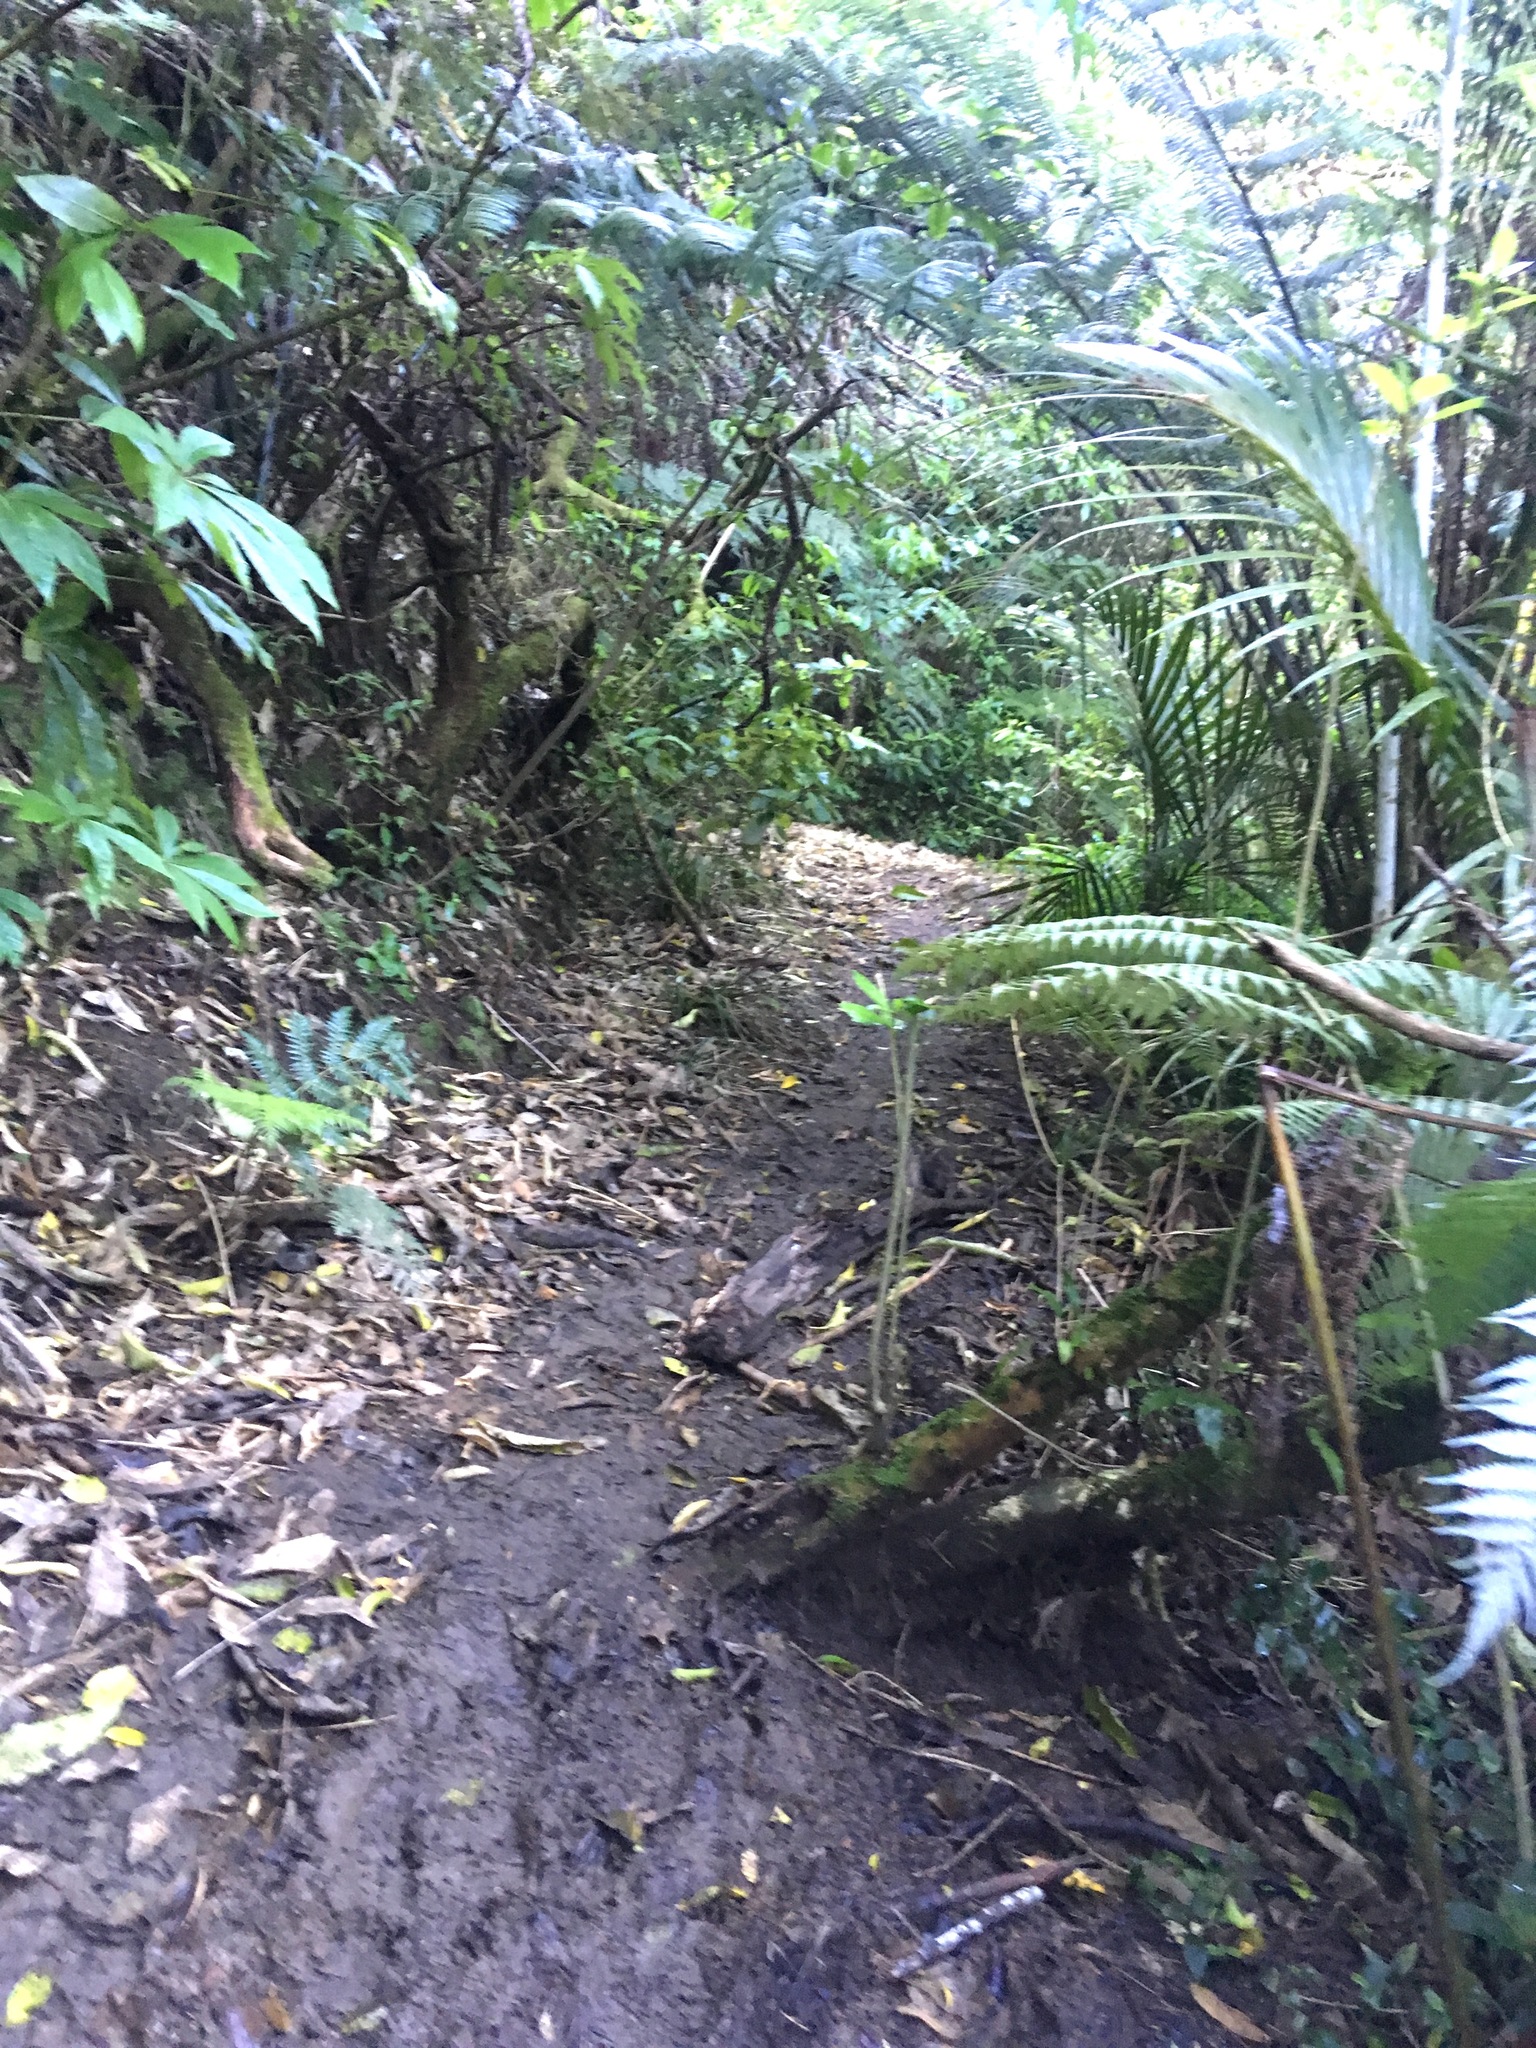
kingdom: Plantae
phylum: Tracheophyta
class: Polypodiopsida
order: Cyatheales
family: Cyatheaceae
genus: Alsophila
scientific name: Alsophila dealbata
